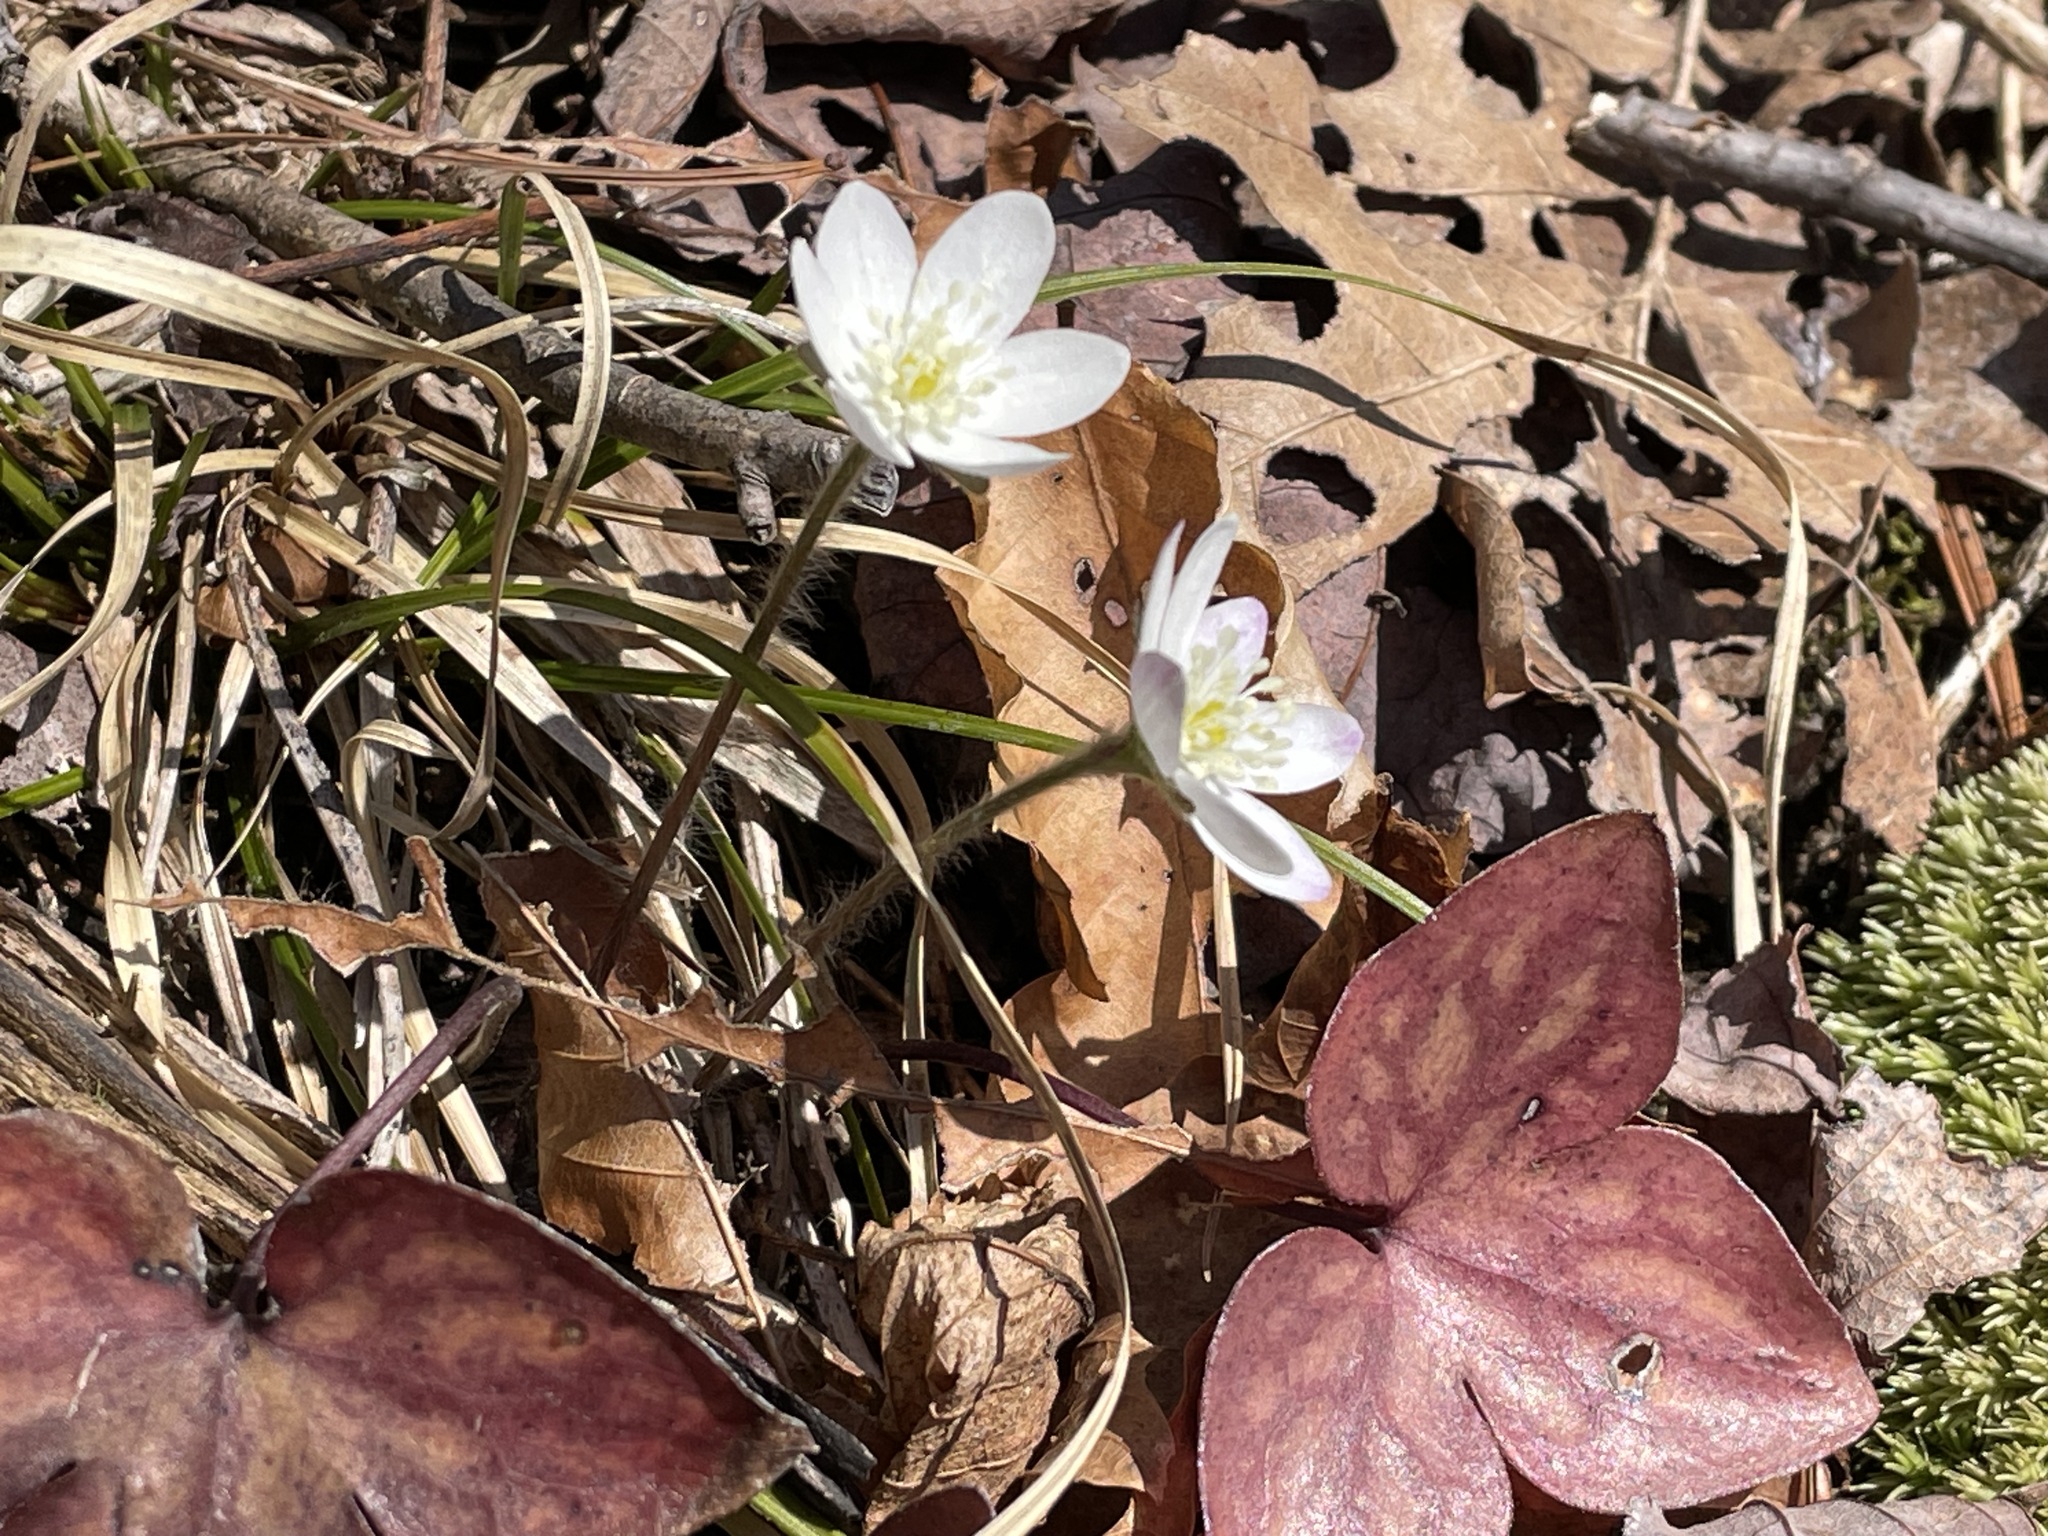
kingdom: Plantae
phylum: Tracheophyta
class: Magnoliopsida
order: Ranunculales
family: Ranunculaceae
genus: Hepatica
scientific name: Hepatica acutiloba
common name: Sharp-lobed hepatica
